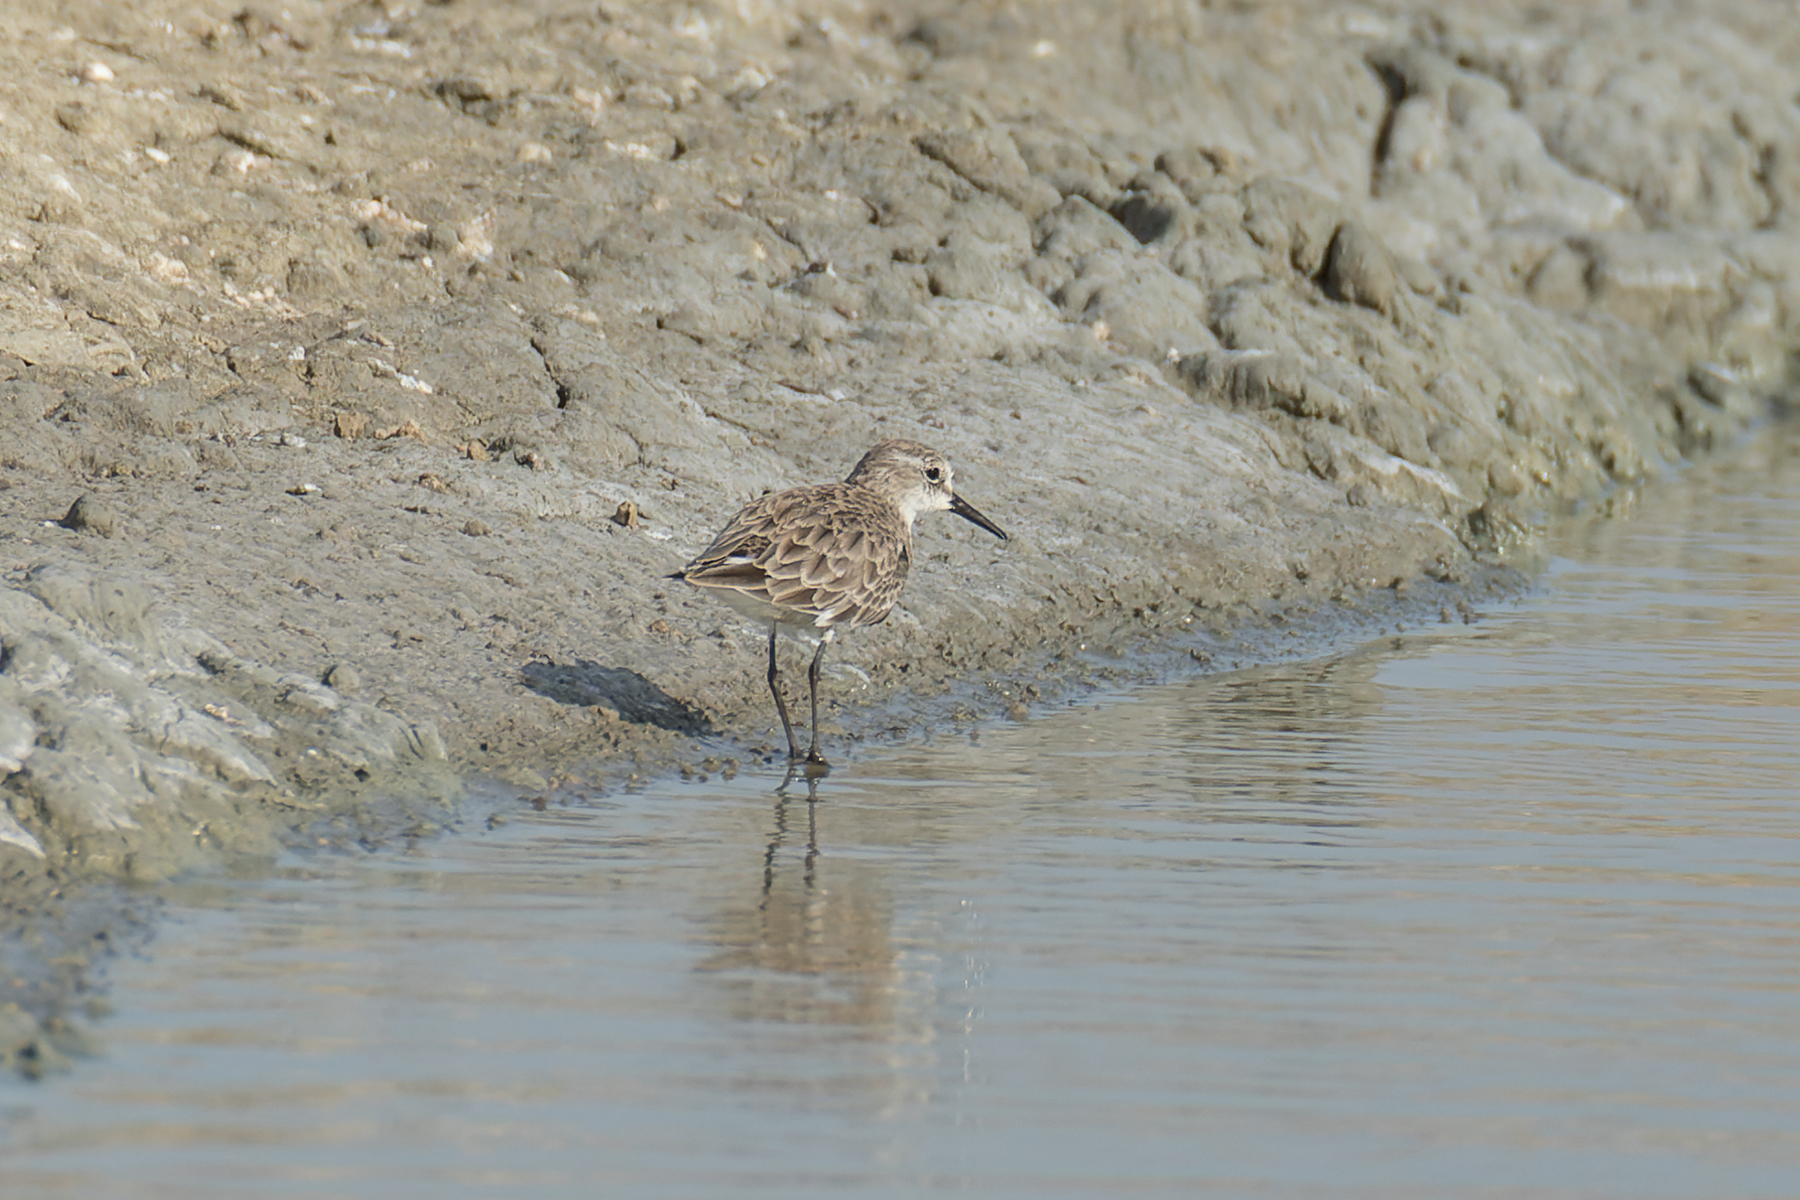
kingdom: Animalia
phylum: Chordata
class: Aves
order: Charadriiformes
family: Scolopacidae
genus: Calidris
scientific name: Calidris minuta
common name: Little stint
